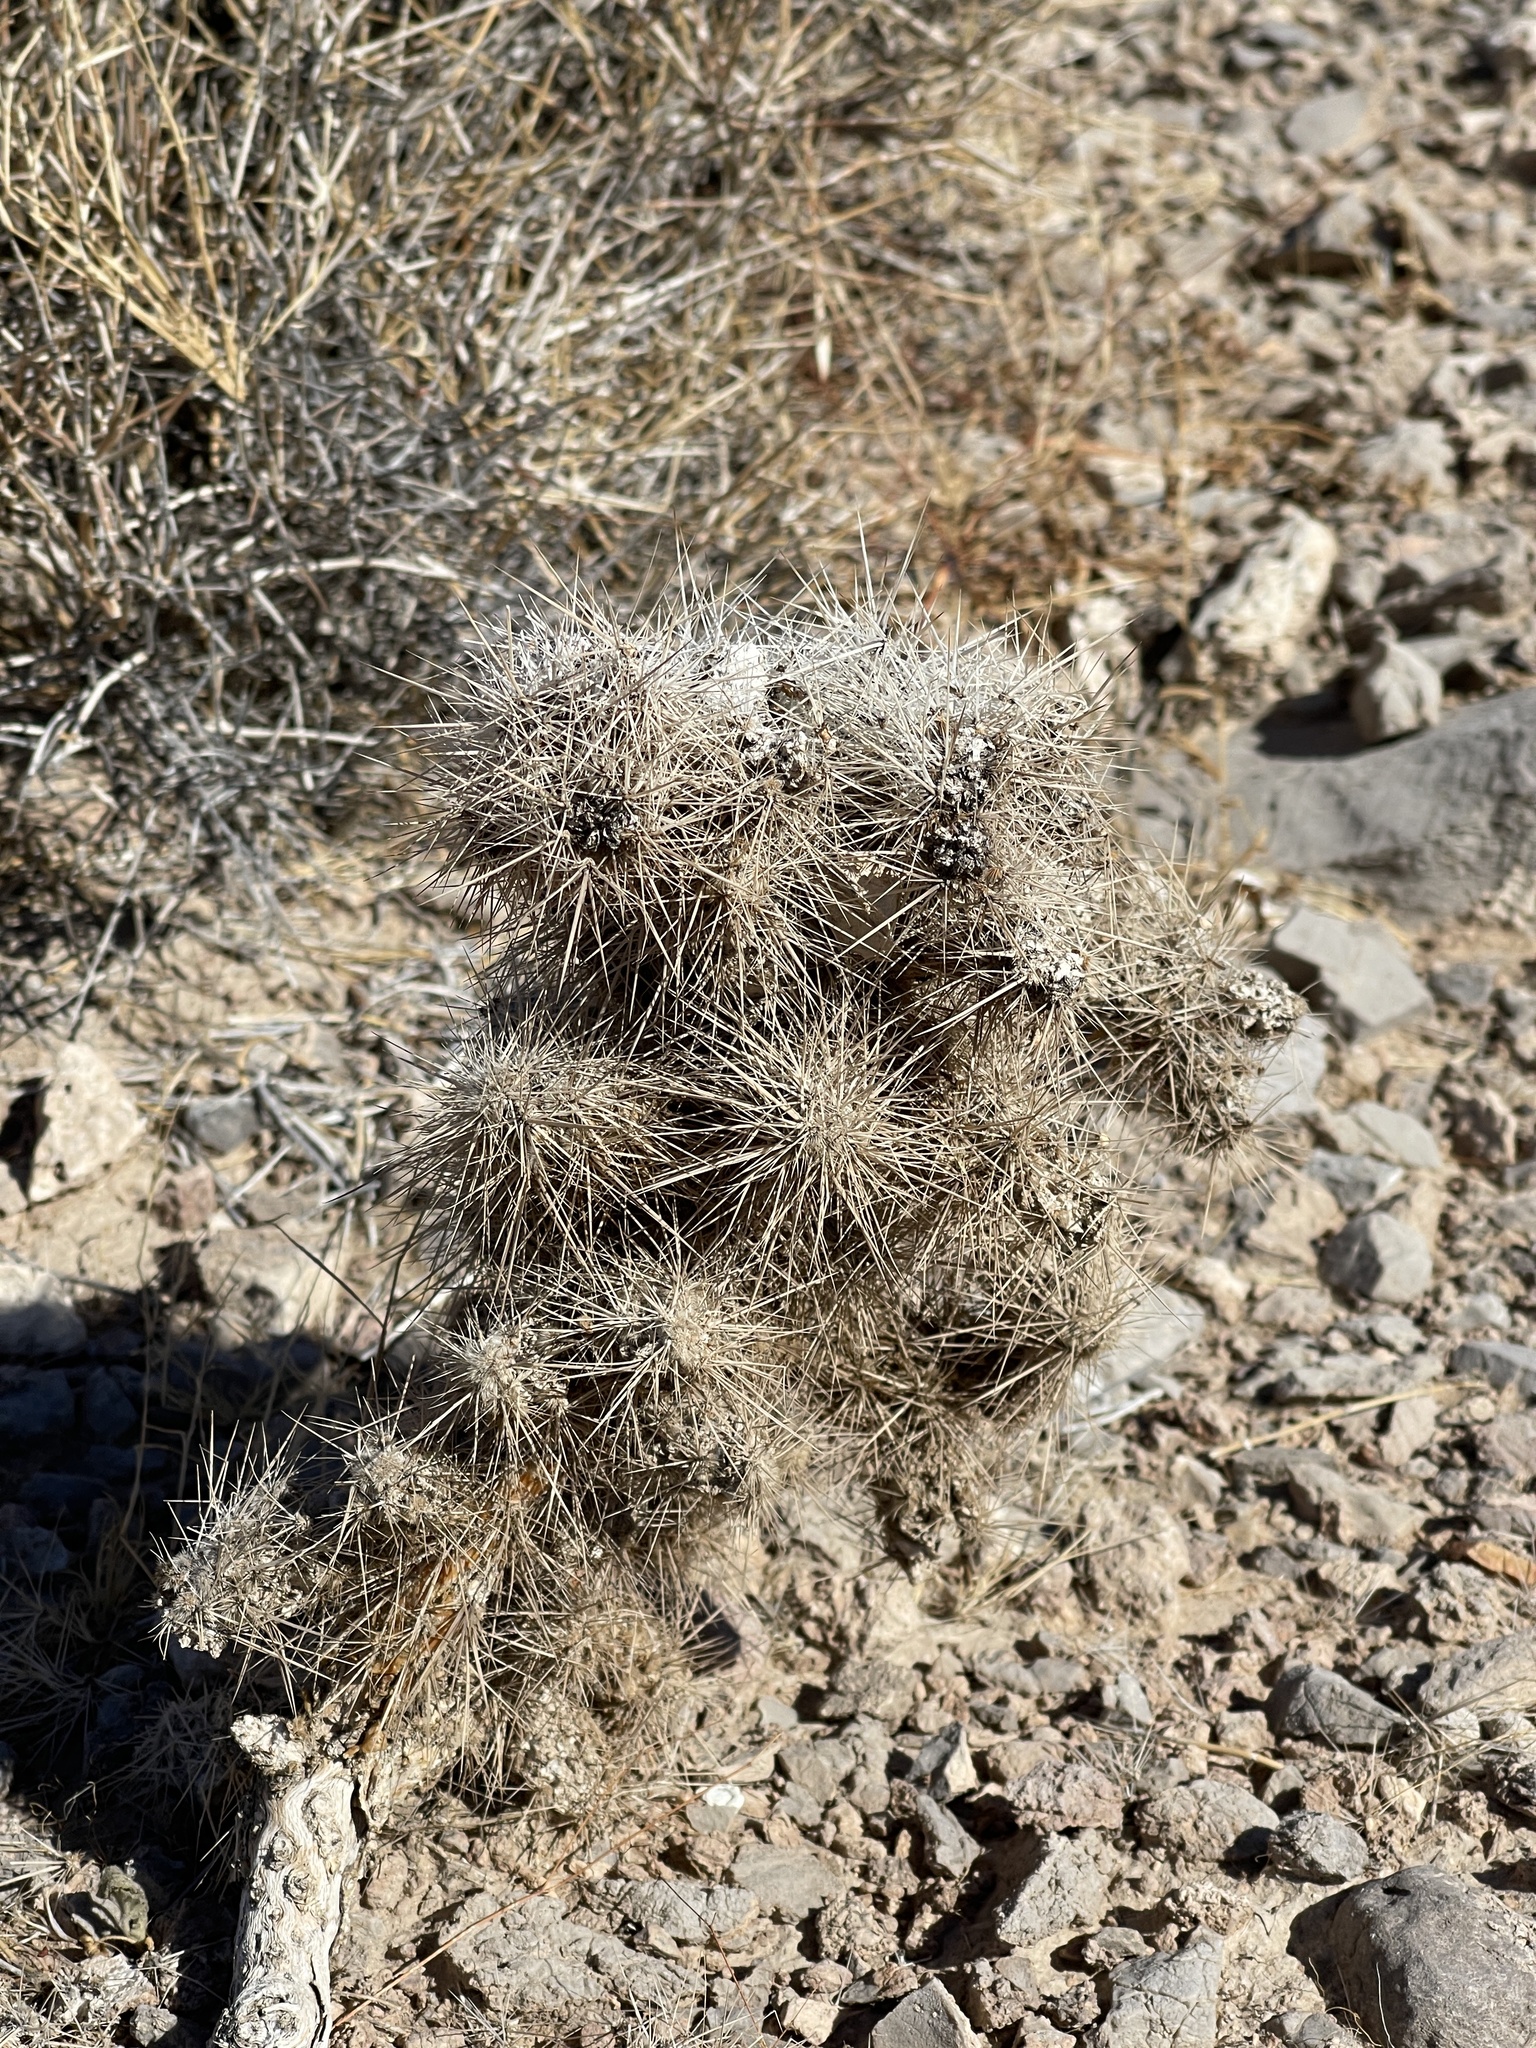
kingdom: Plantae
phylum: Tracheophyta
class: Magnoliopsida
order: Caryophyllales
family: Cactaceae
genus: Cylindropuntia
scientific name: Cylindropuntia echinocarpa
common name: Ground cholla
